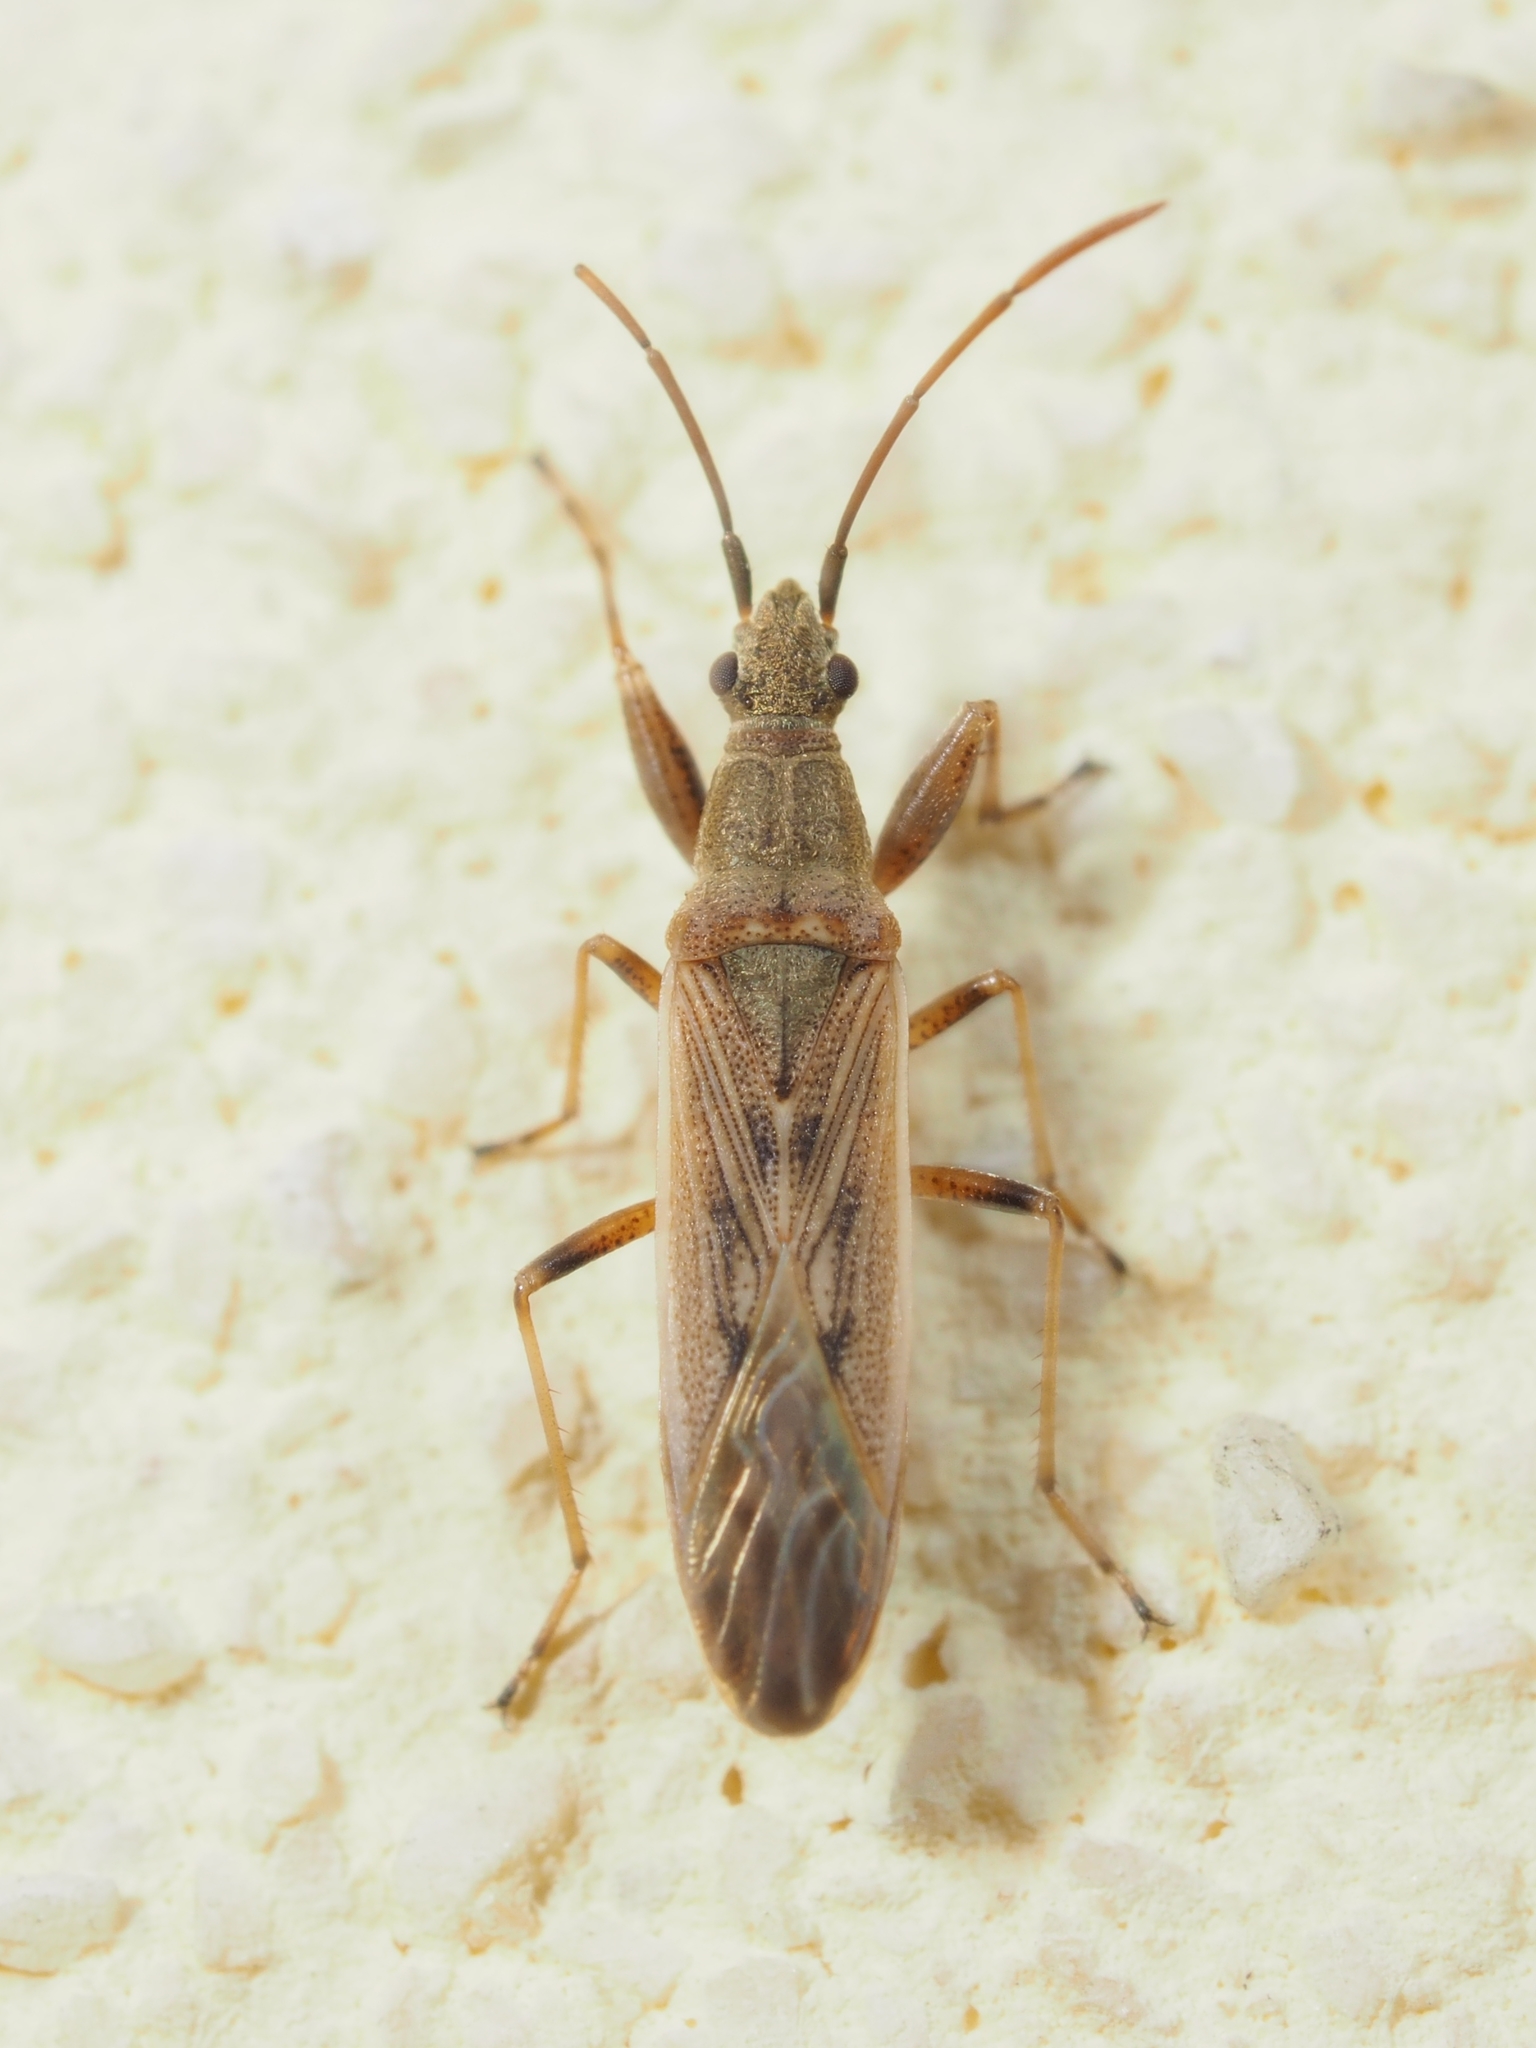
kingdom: Animalia
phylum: Arthropoda
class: Insecta
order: Hemiptera
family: Rhyparochromidae
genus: Paromius
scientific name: Paromius gracilis
